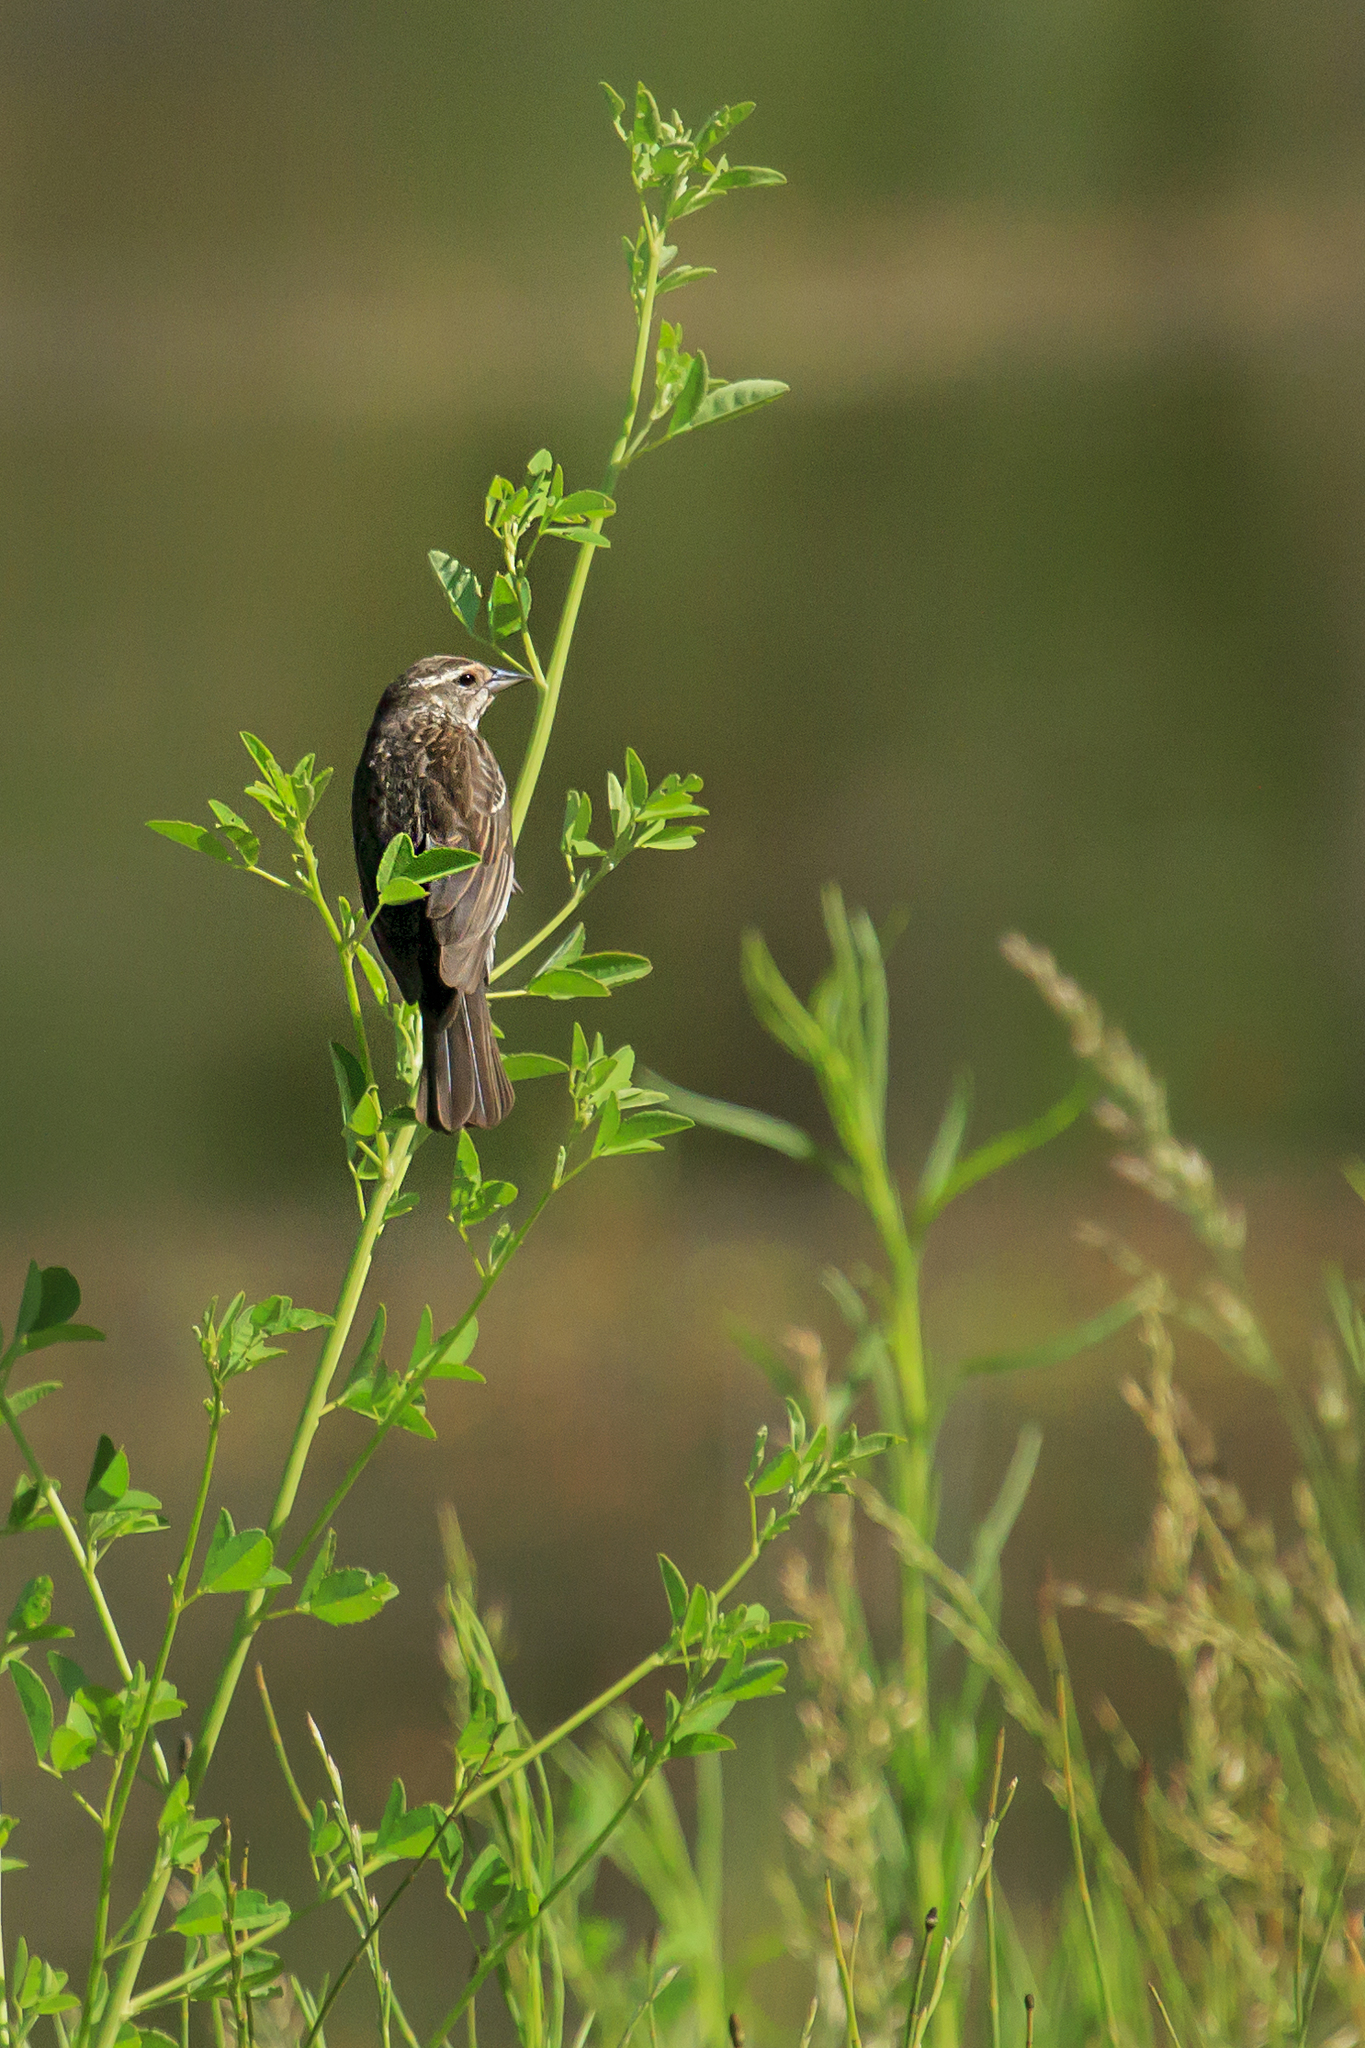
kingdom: Animalia
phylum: Chordata
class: Aves
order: Passeriformes
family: Icteridae
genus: Agelaius
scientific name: Agelaius phoeniceus
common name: Red-winged blackbird
